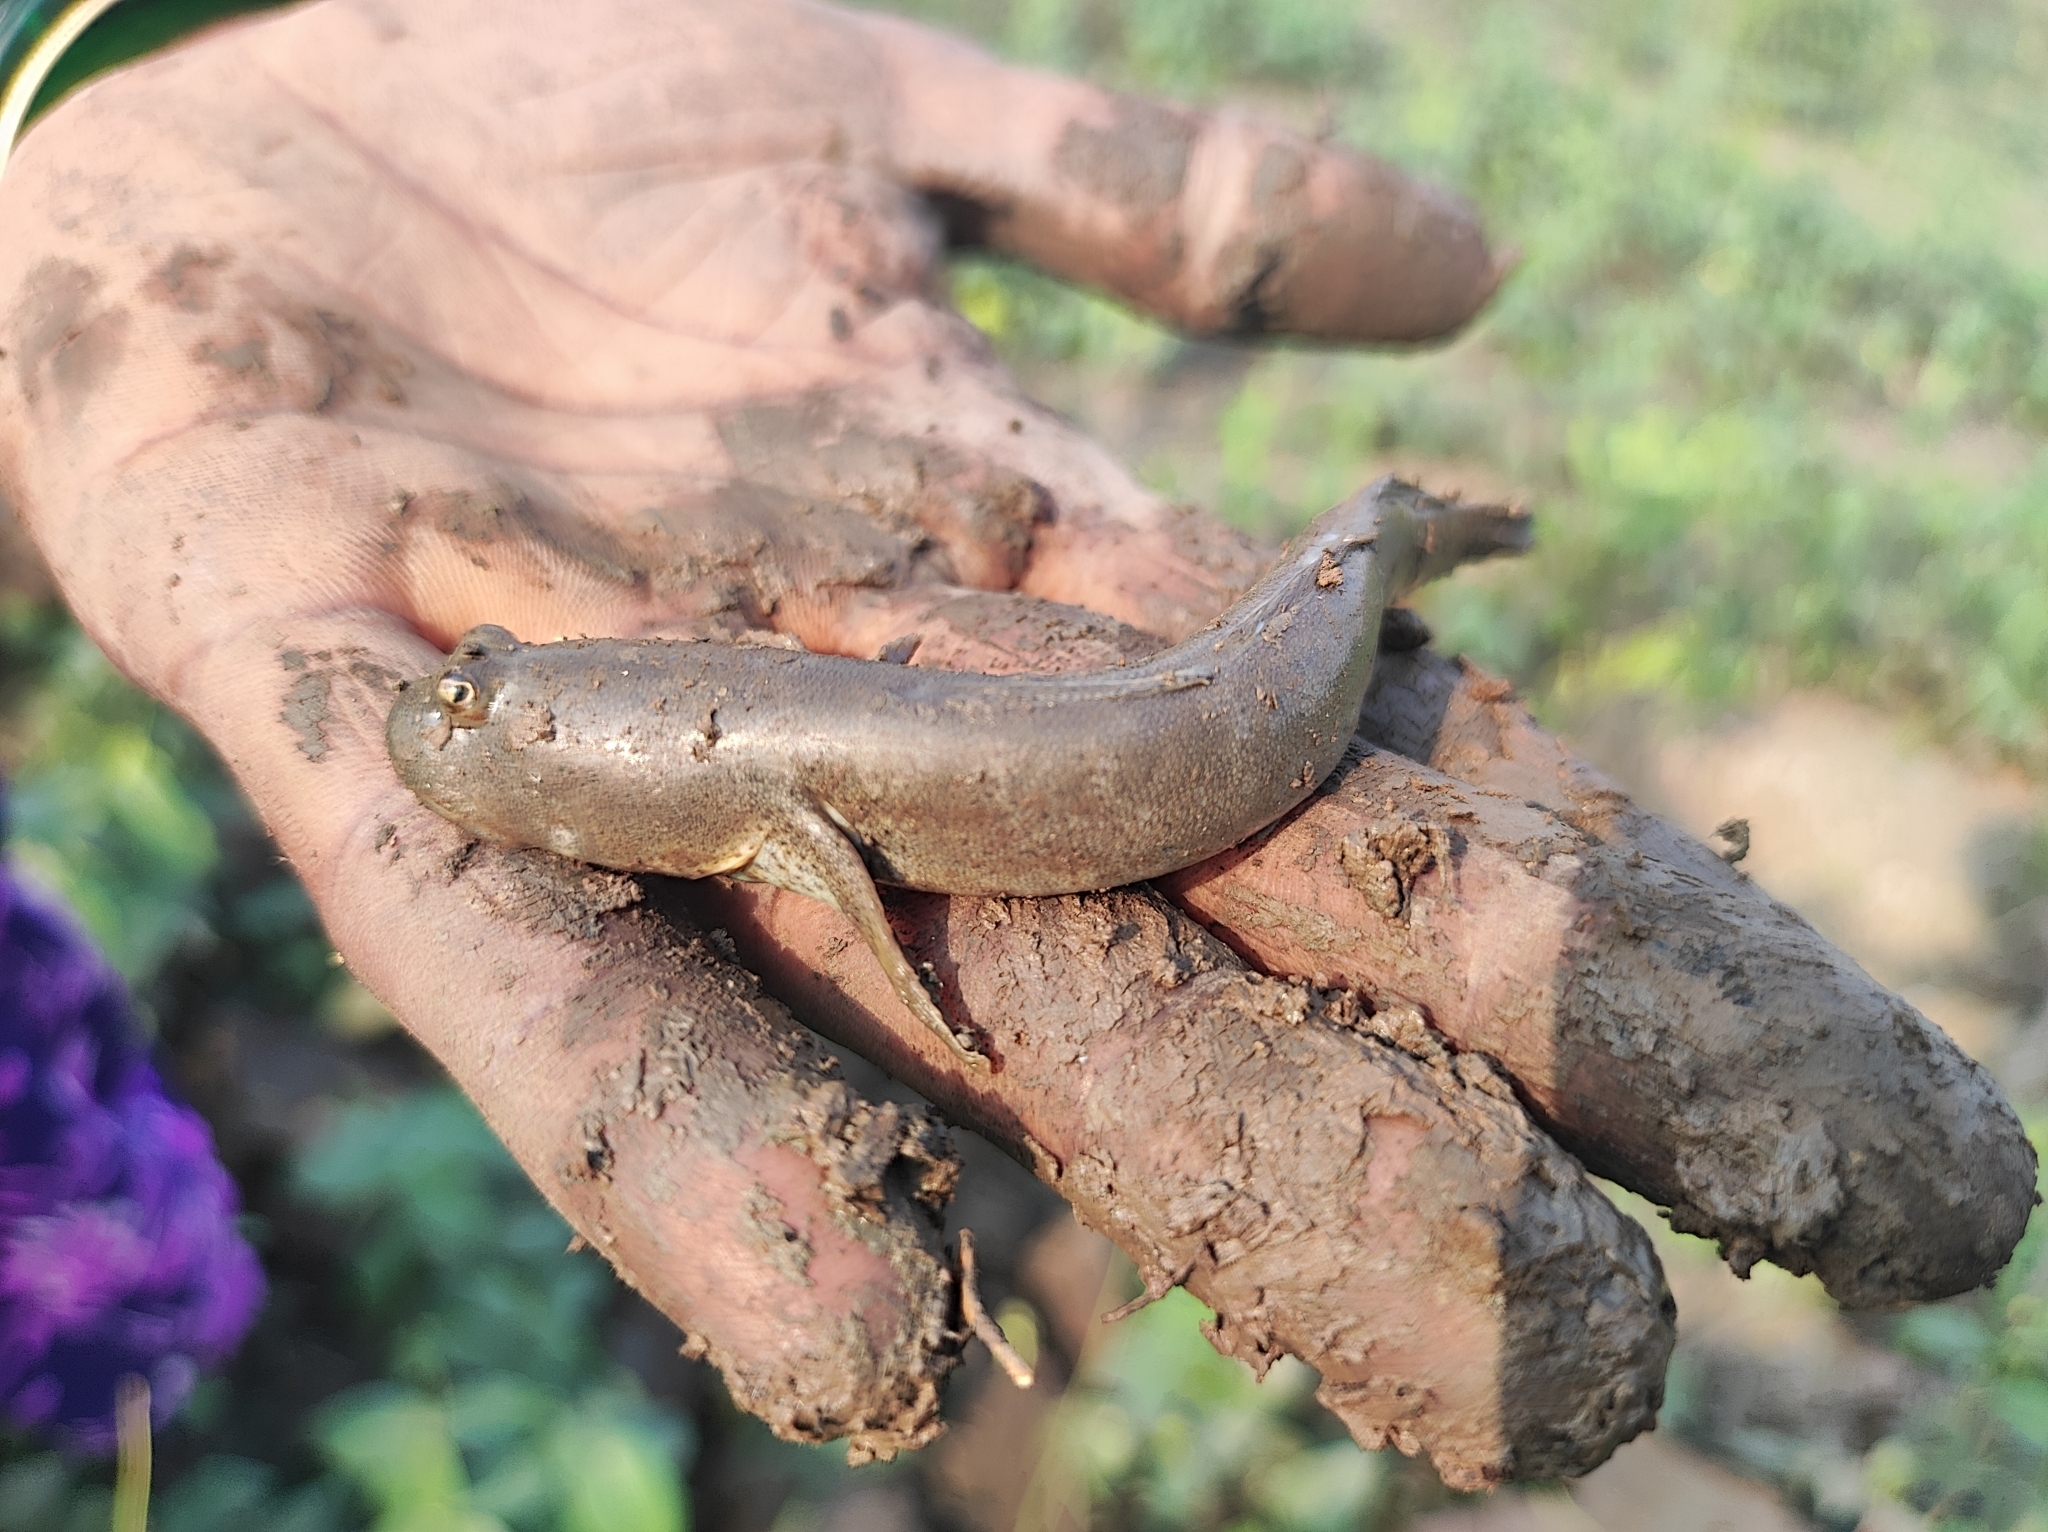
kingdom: Animalia
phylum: Chordata
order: Perciformes
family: Gobiidae
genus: Boleophthalmus
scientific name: Boleophthalmus dussumieri
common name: Mud skipper
